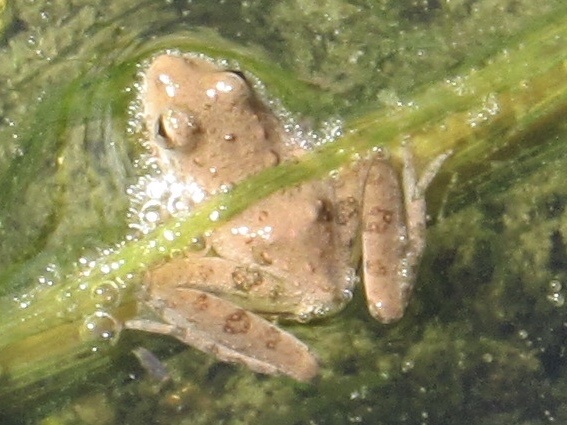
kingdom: Animalia
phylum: Chordata
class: Amphibia
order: Anura
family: Hylidae
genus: Acris
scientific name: Acris blanchardi
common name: Blanchard's cricket frog
